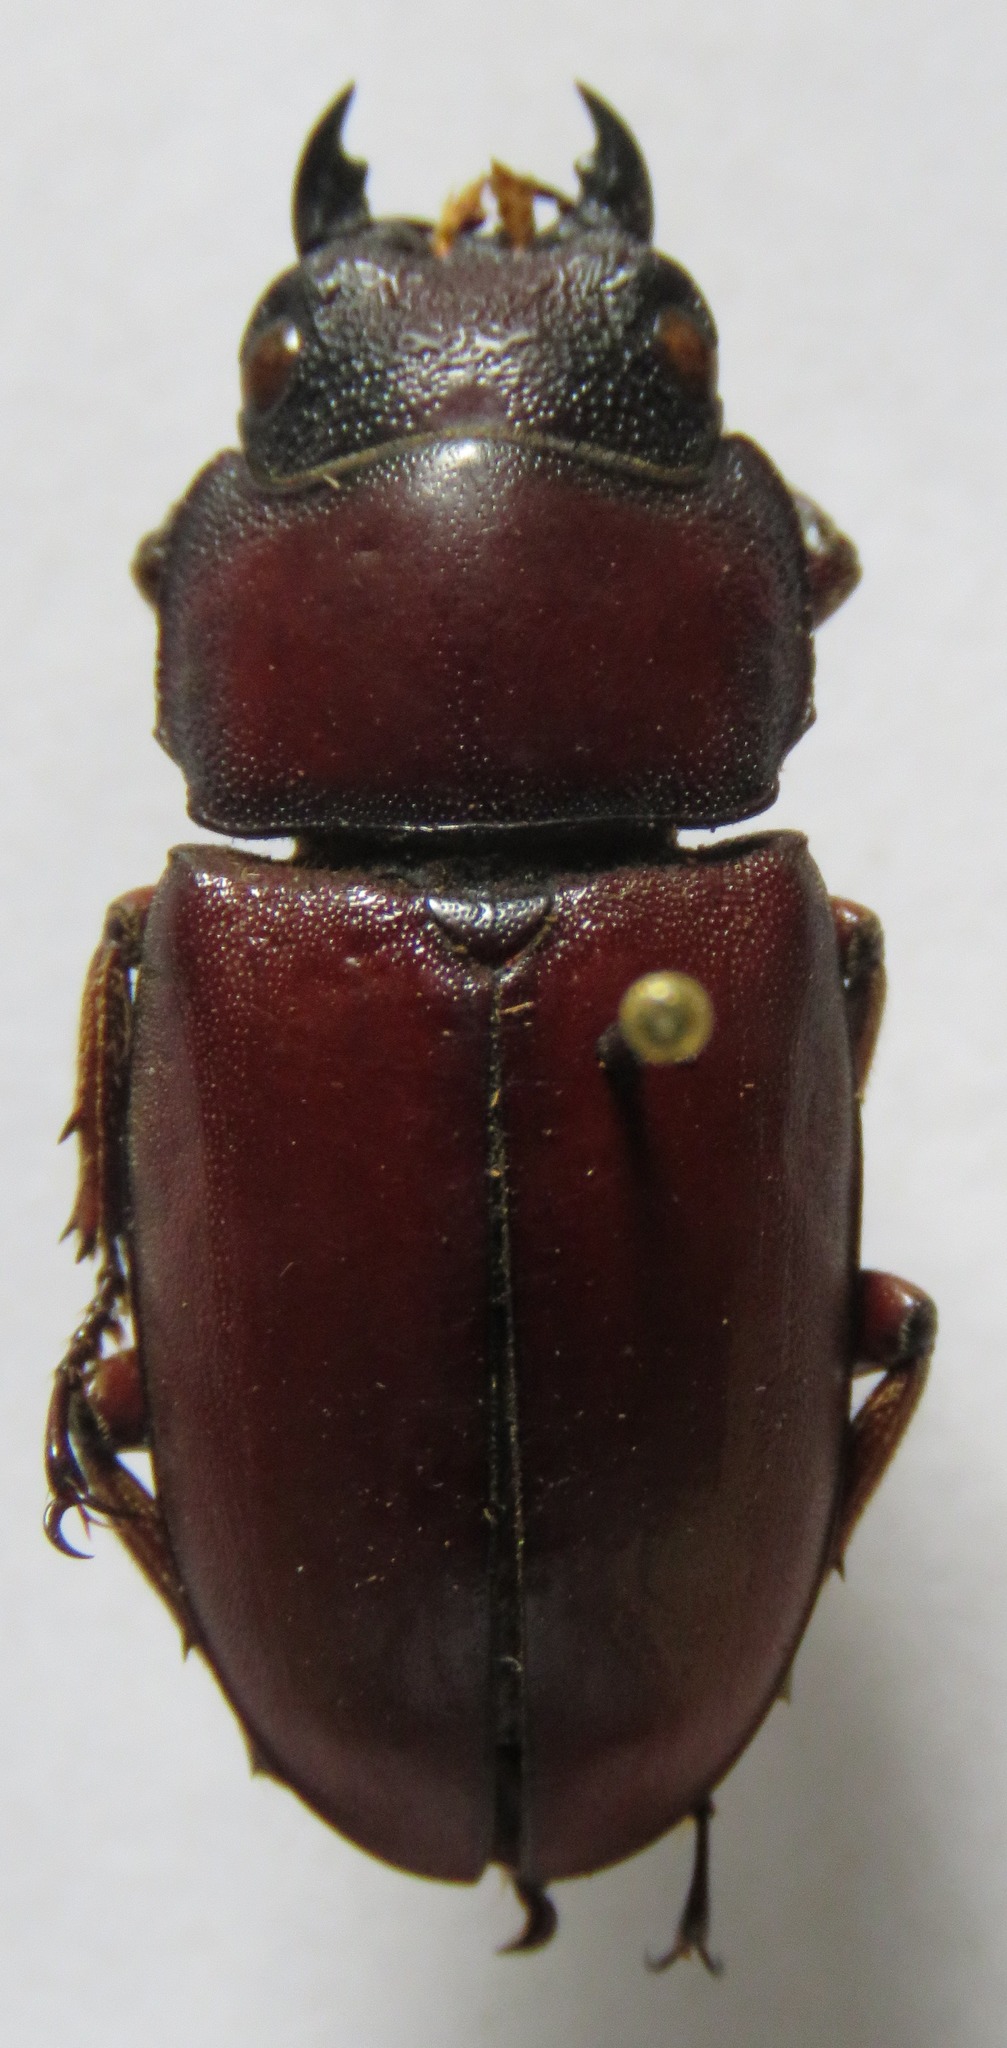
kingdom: Animalia
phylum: Arthropoda
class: Insecta
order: Coleoptera
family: Lucanidae
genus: Prosopocoilus
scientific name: Prosopocoilus romeoi
